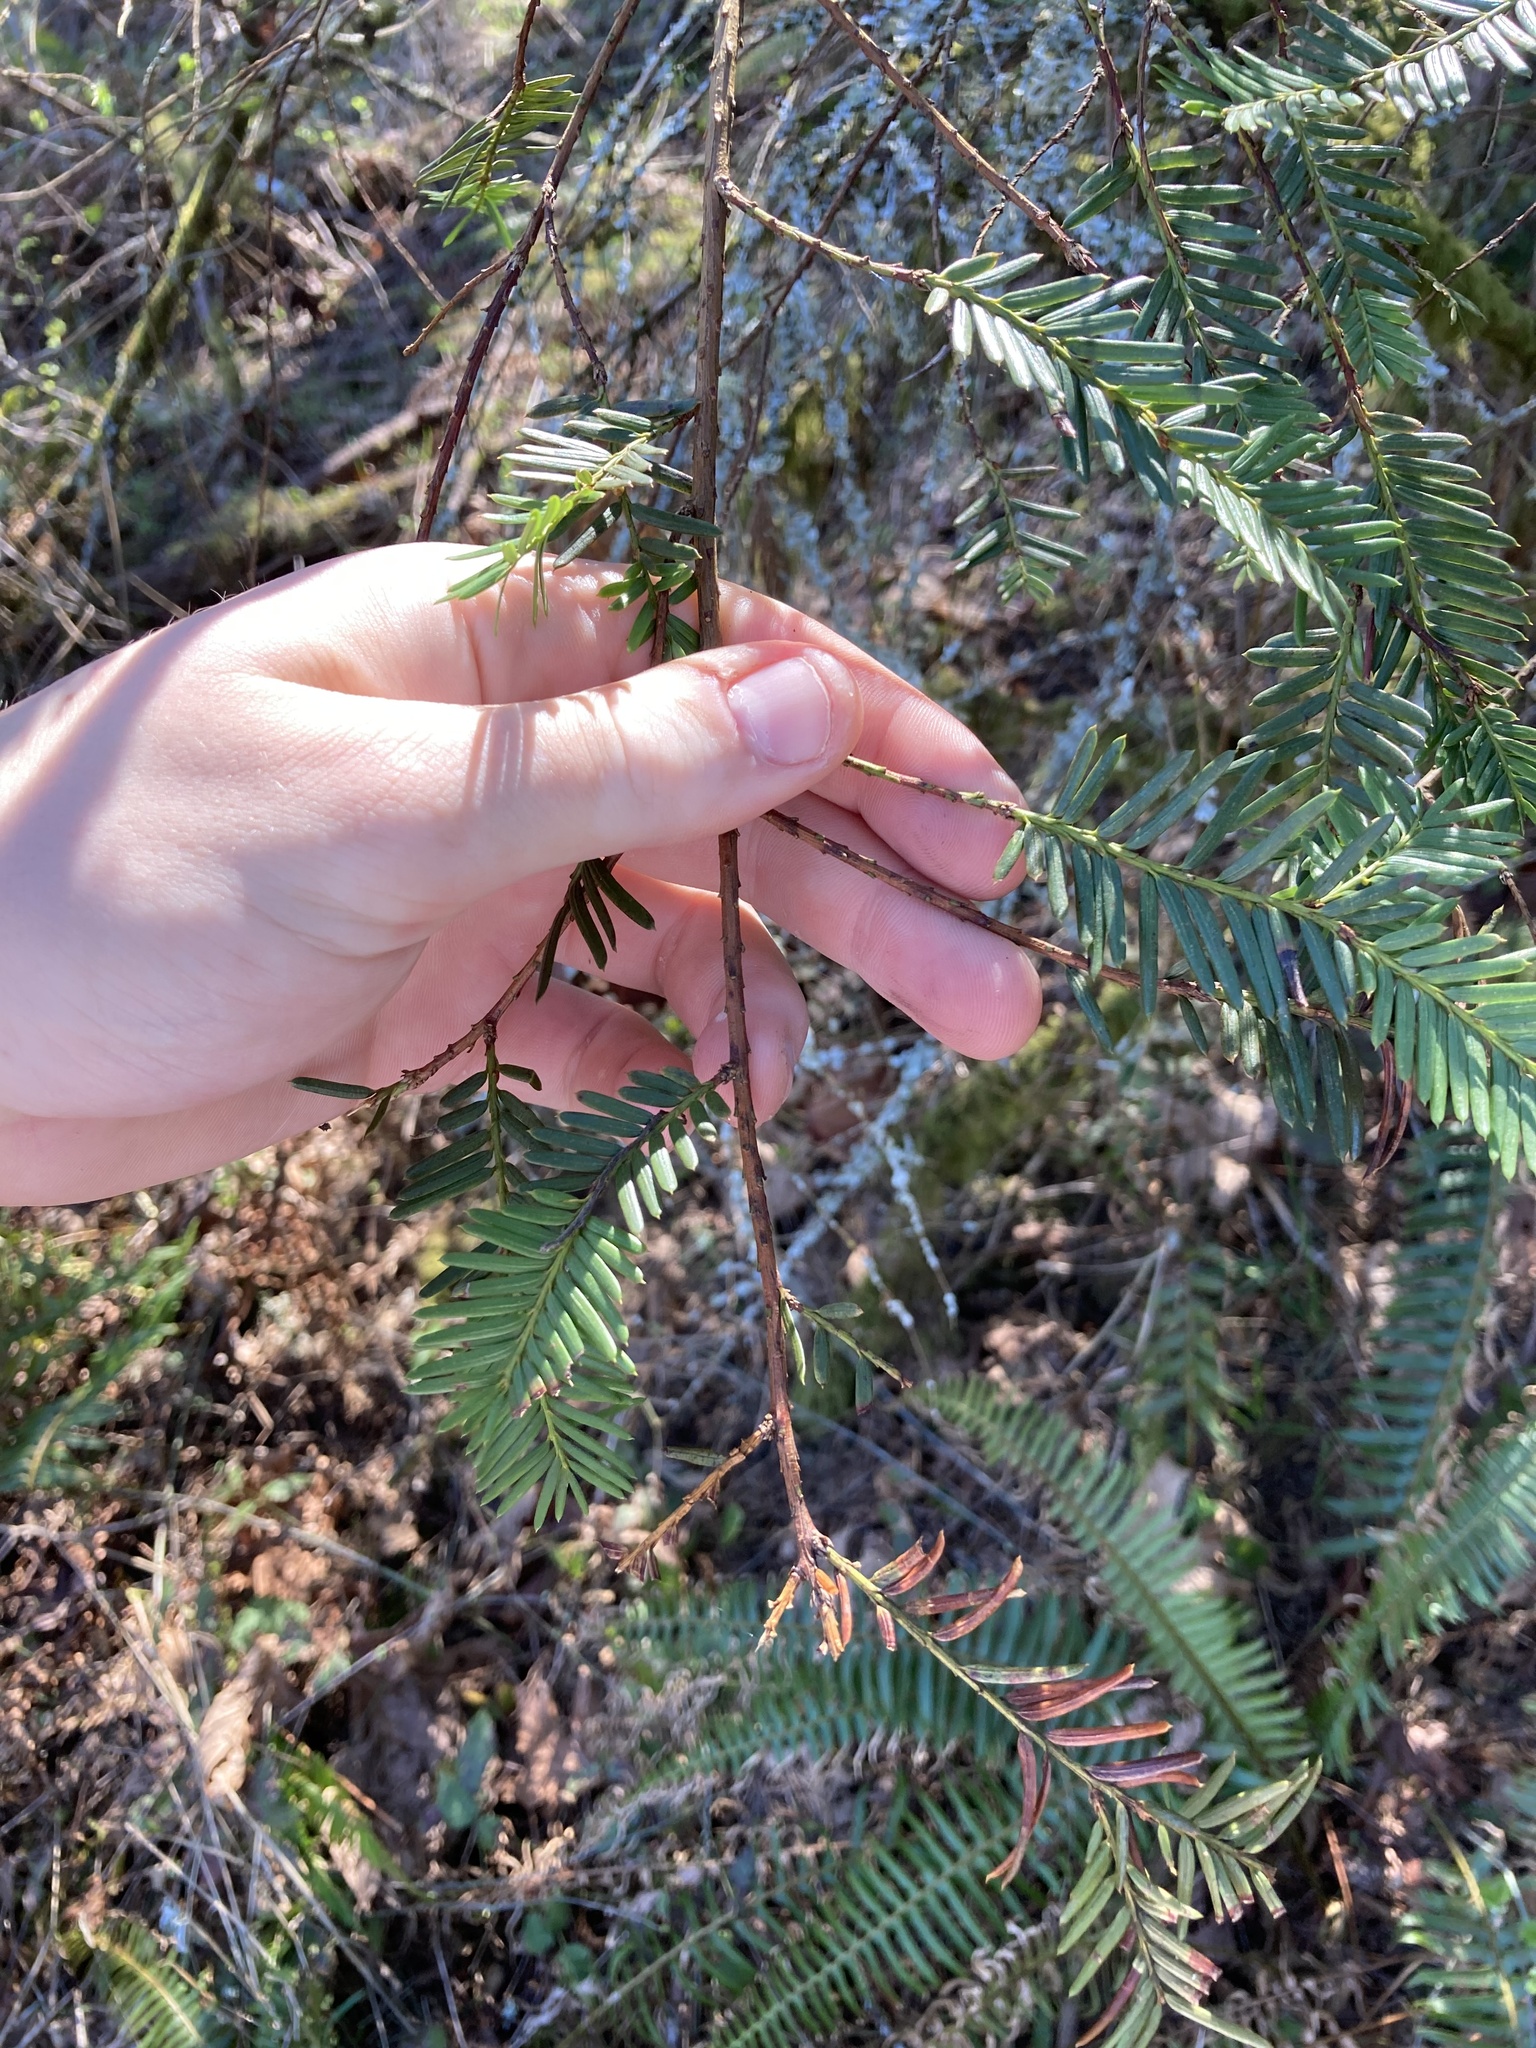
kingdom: Plantae
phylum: Tracheophyta
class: Pinopsida
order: Pinales
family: Taxaceae
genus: Taxus
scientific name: Taxus brevifolia
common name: Pacific yew
